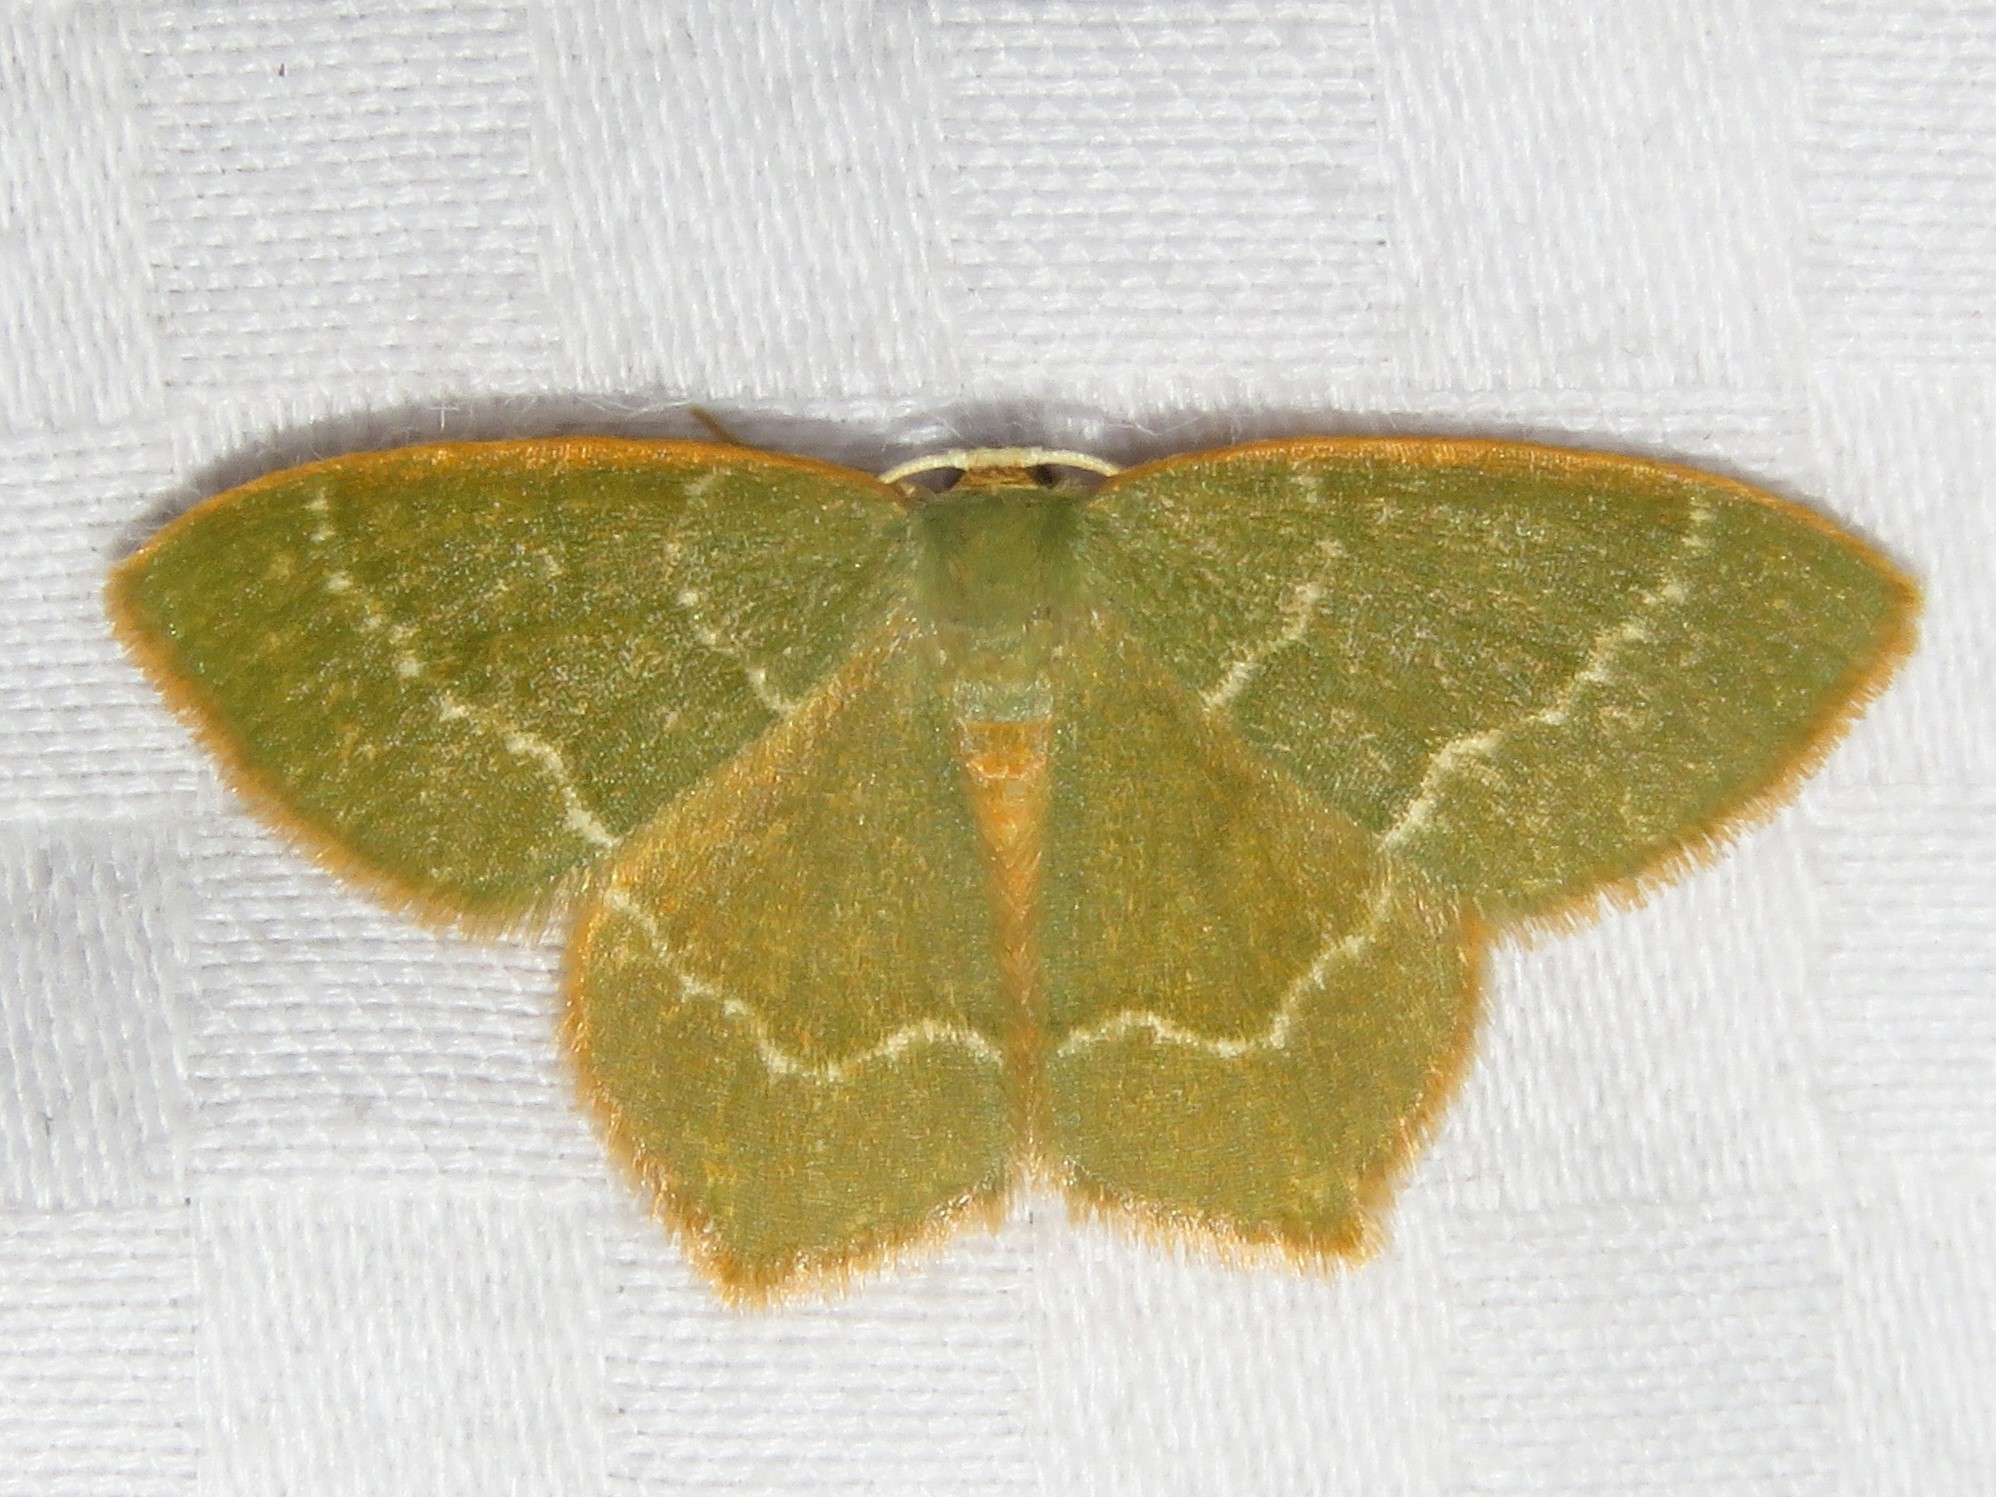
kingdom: Animalia
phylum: Arthropoda
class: Insecta
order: Lepidoptera
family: Geometridae
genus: Thalera
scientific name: Thalera pistasciaria
